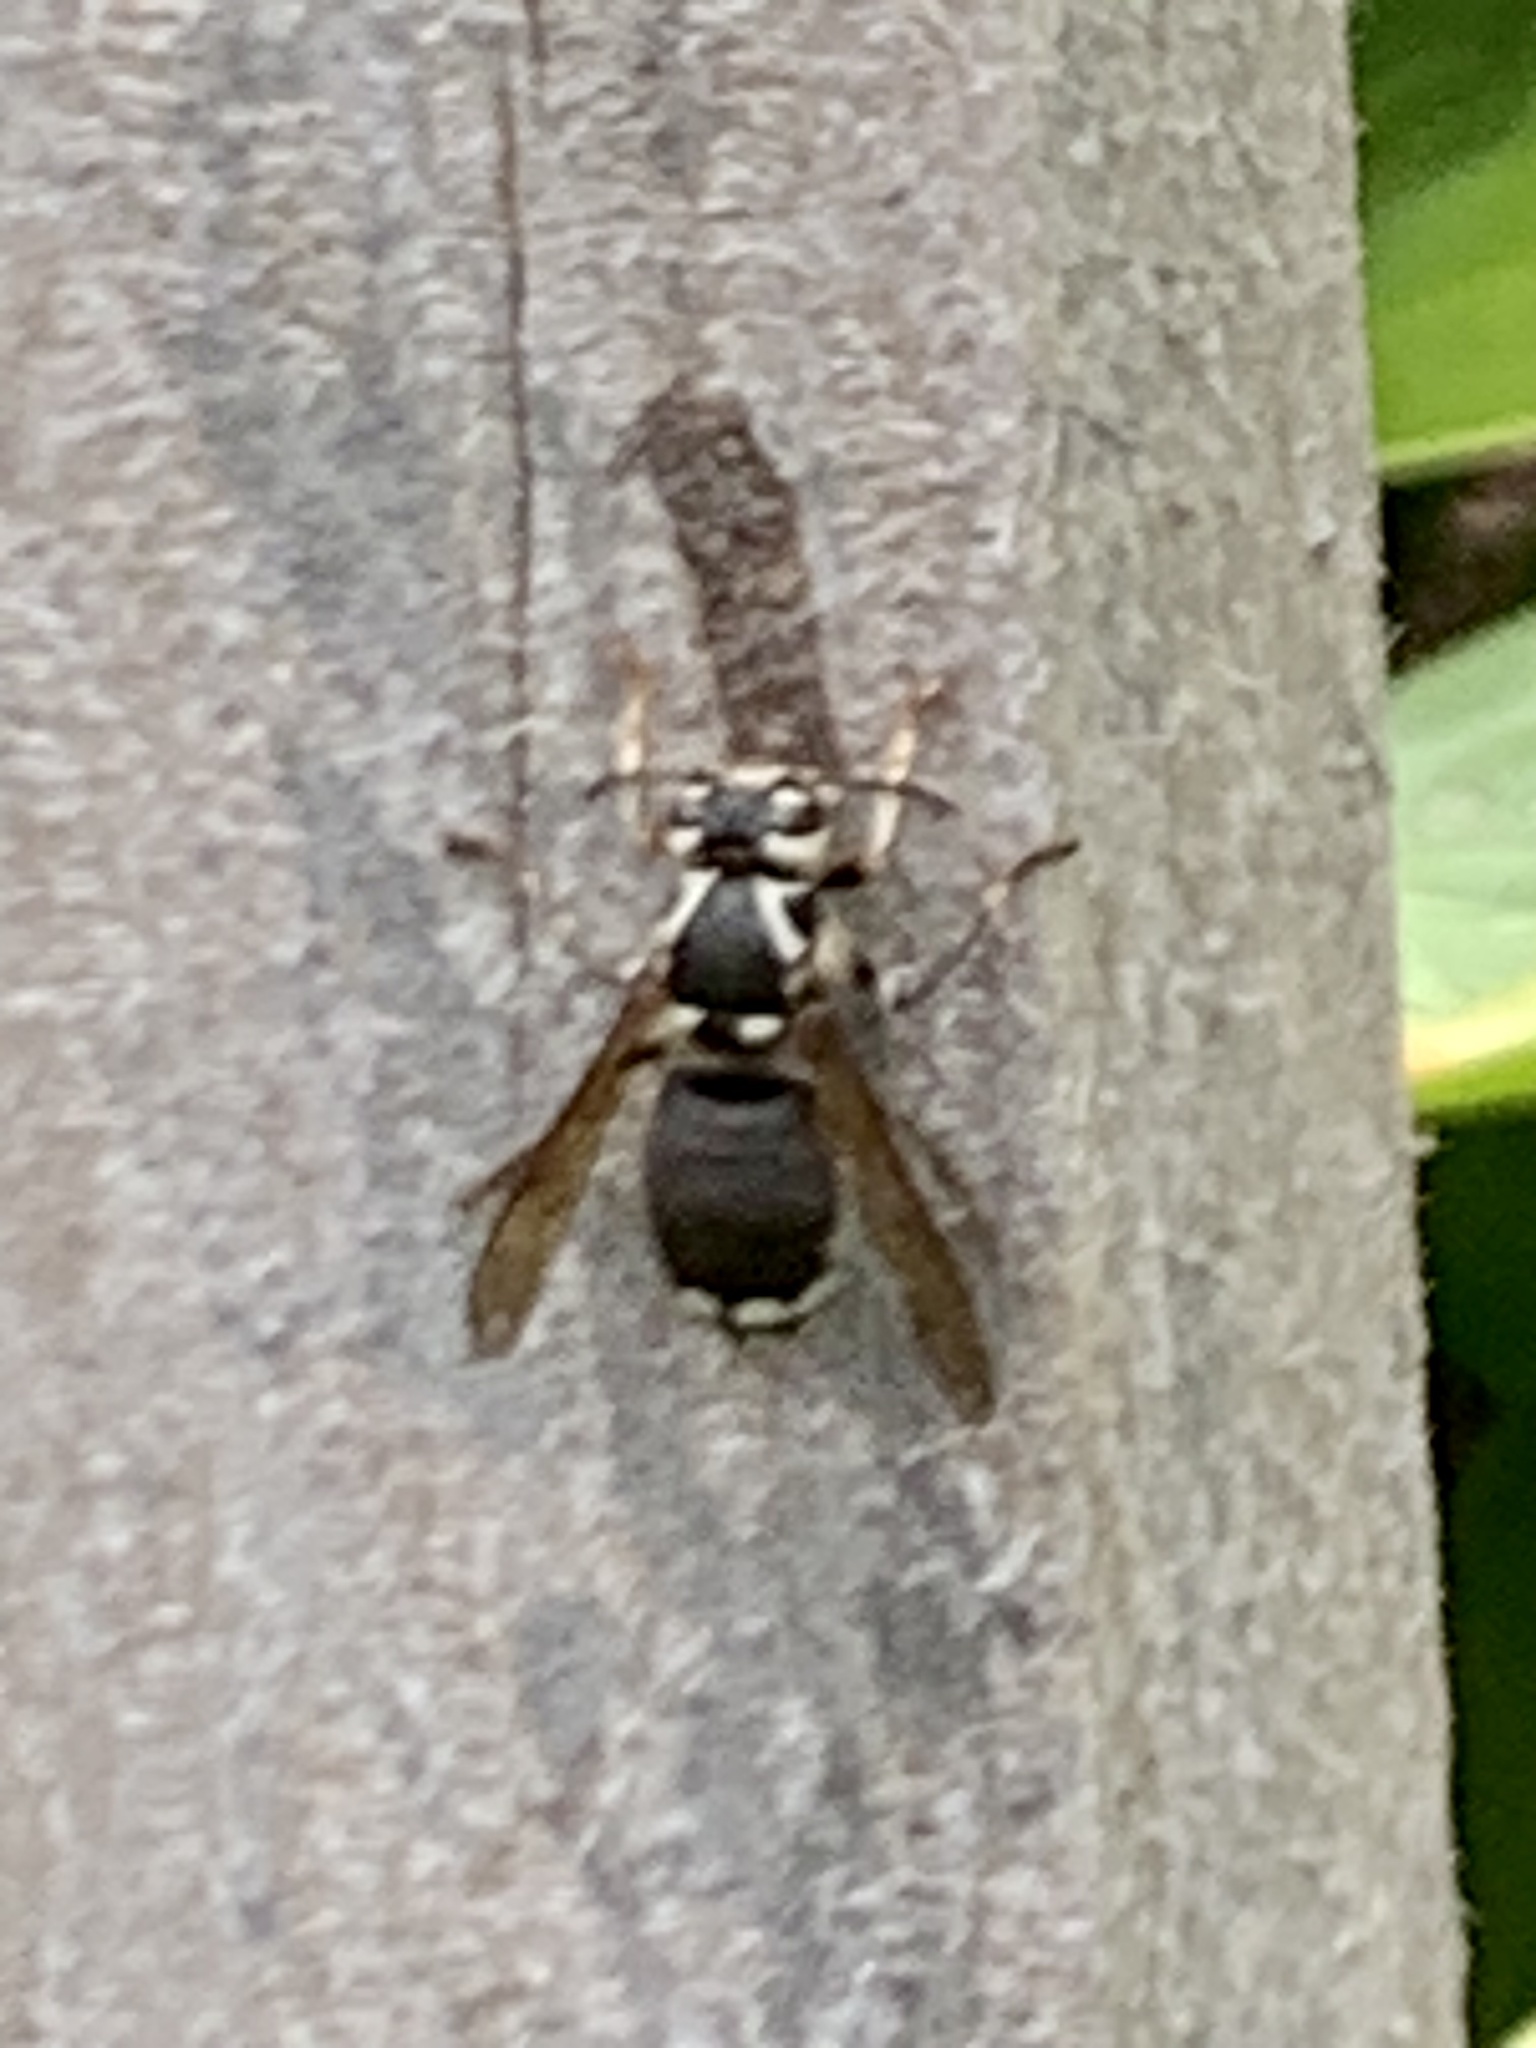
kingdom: Animalia
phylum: Arthropoda
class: Insecta
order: Hymenoptera
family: Vespidae
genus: Dolichovespula
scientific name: Dolichovespula maculata
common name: Bald-faced hornet
